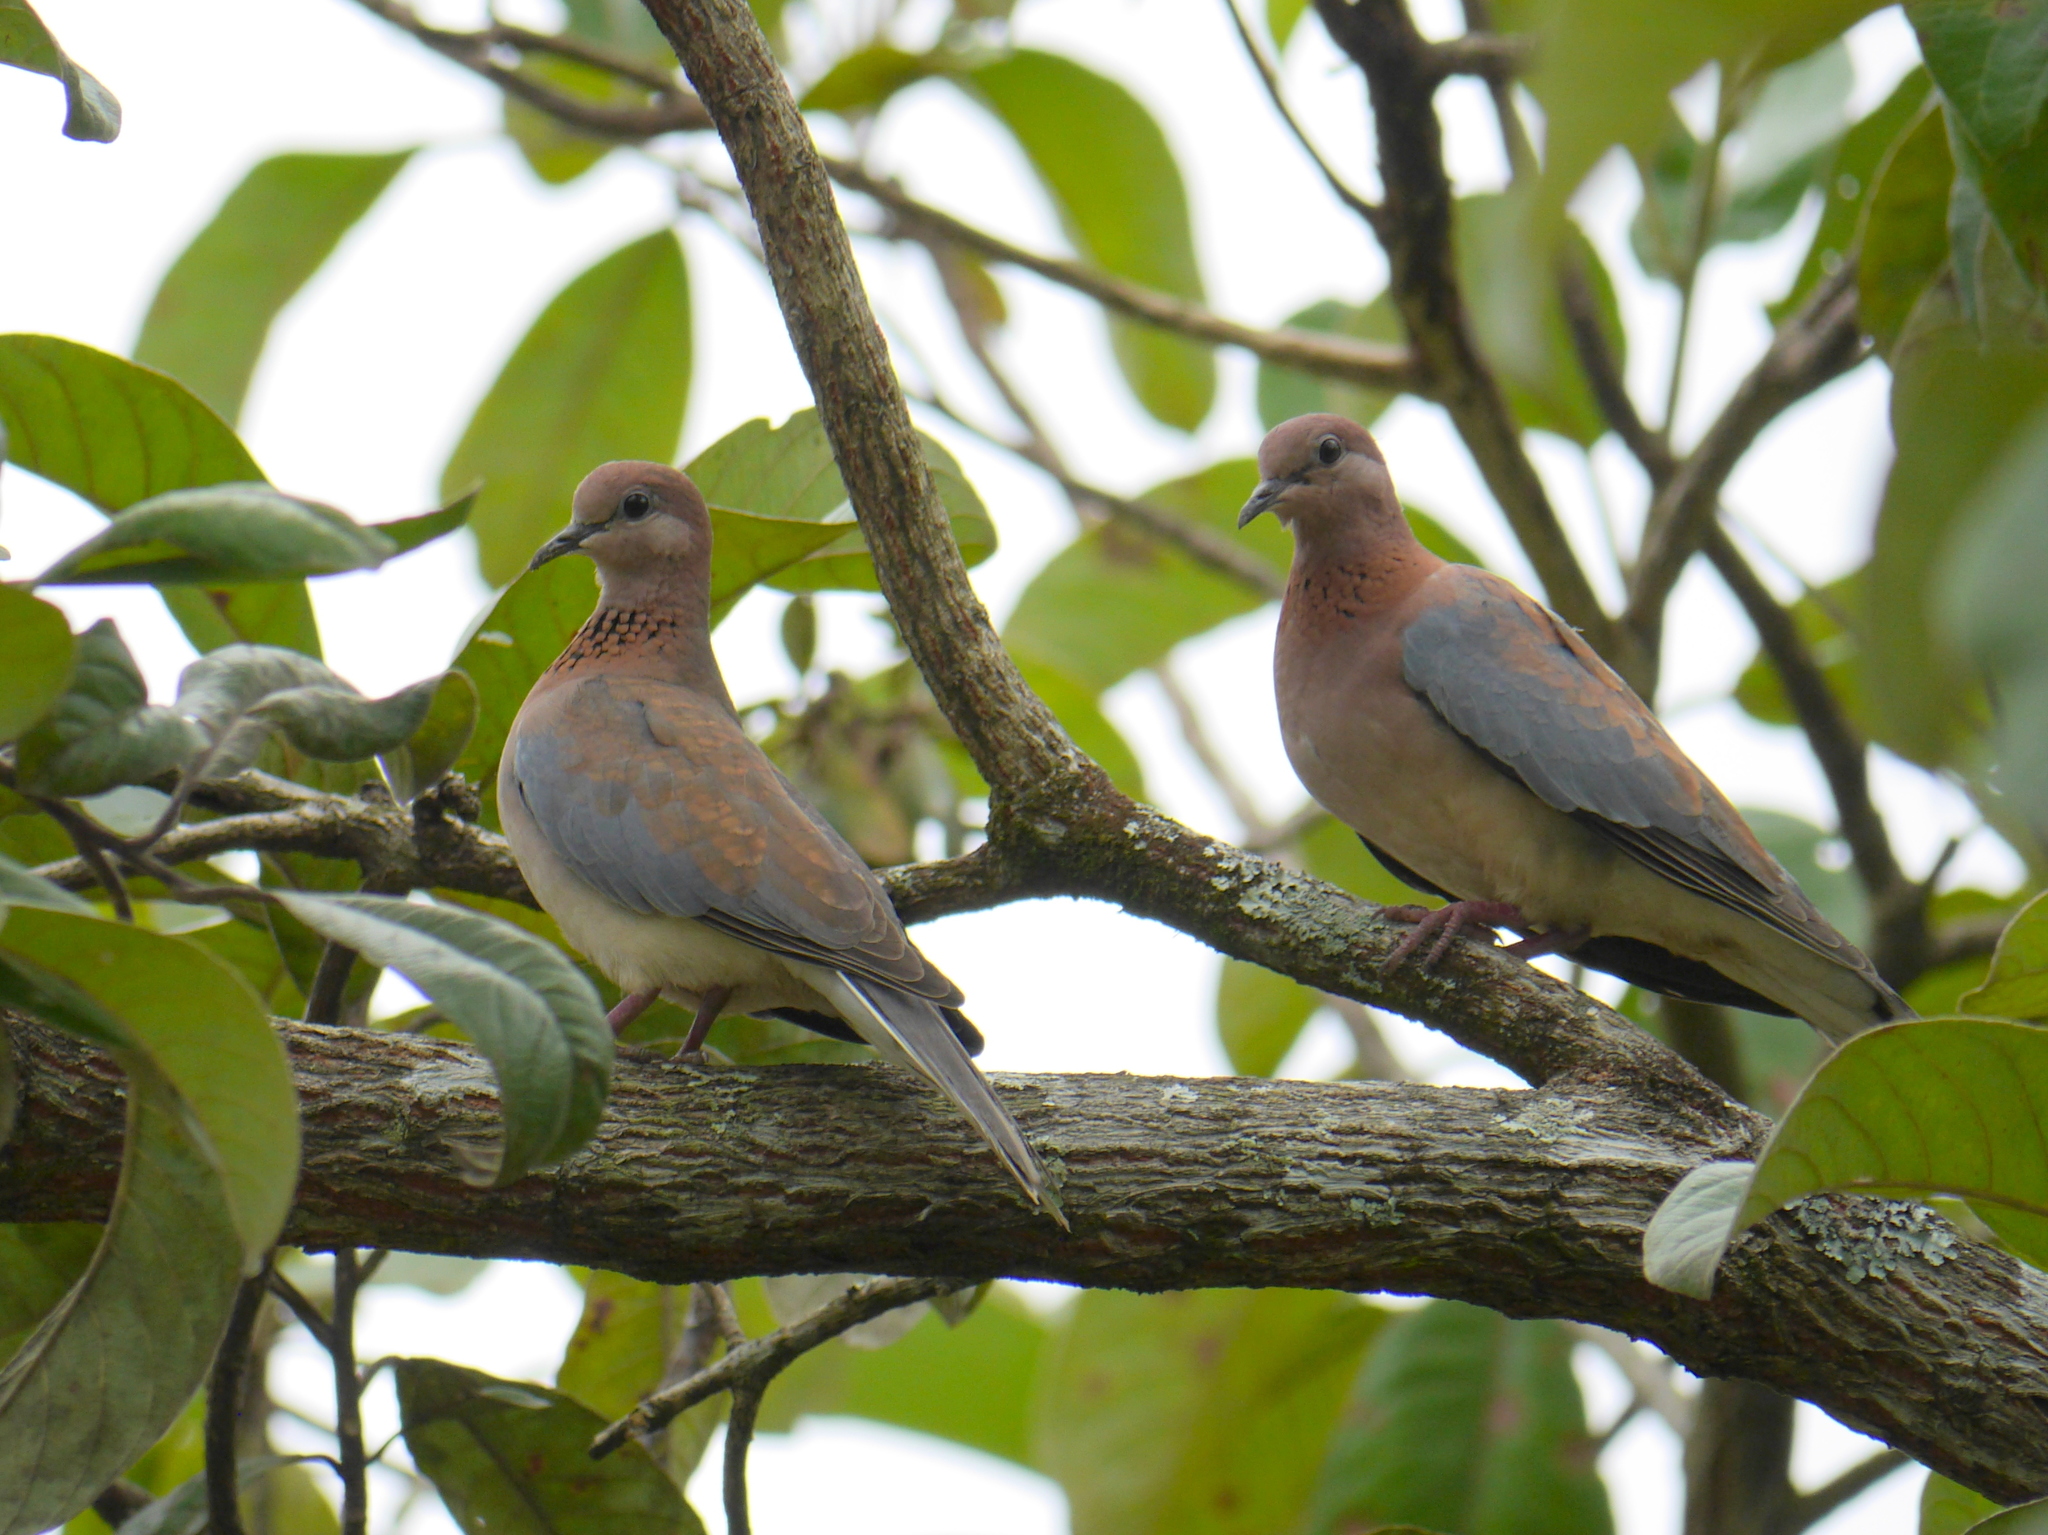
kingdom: Animalia
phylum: Chordata
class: Aves
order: Columbiformes
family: Columbidae
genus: Spilopelia
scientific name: Spilopelia senegalensis
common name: Laughing dove
